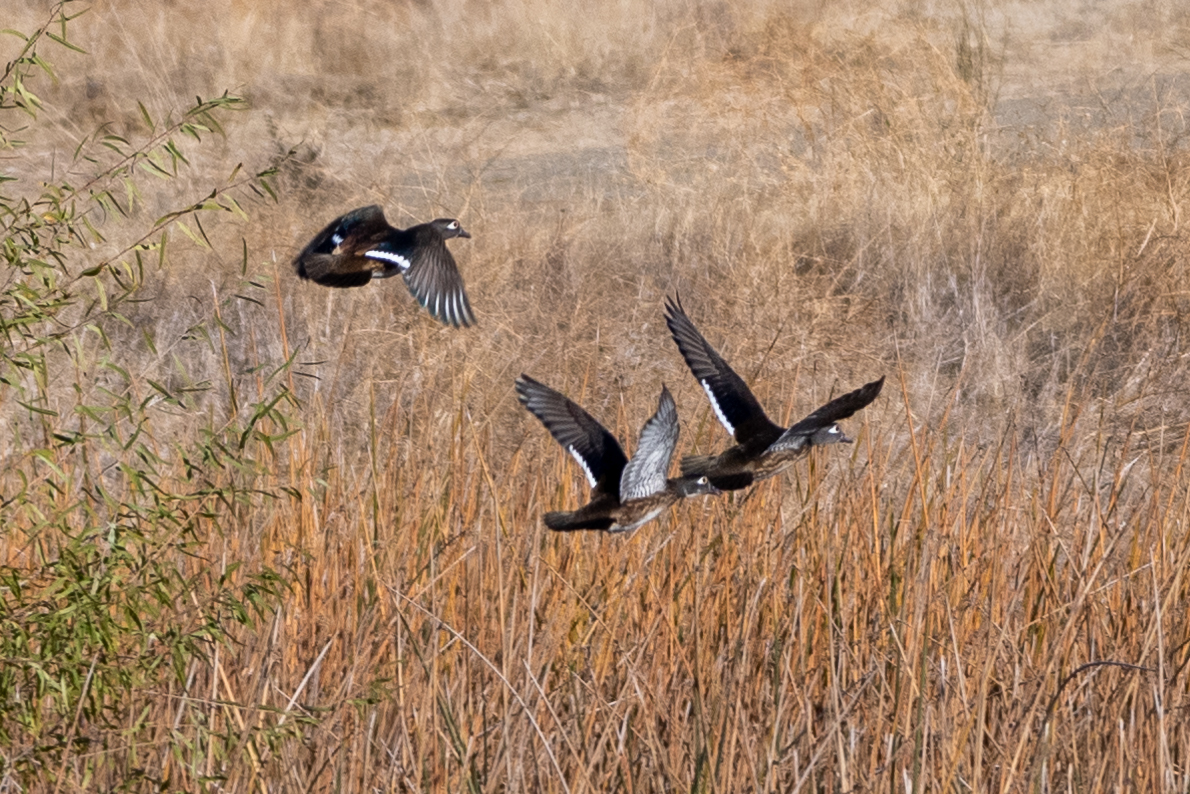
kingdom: Animalia
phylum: Chordata
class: Aves
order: Anseriformes
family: Anatidae
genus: Aix
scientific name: Aix sponsa
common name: Wood duck
